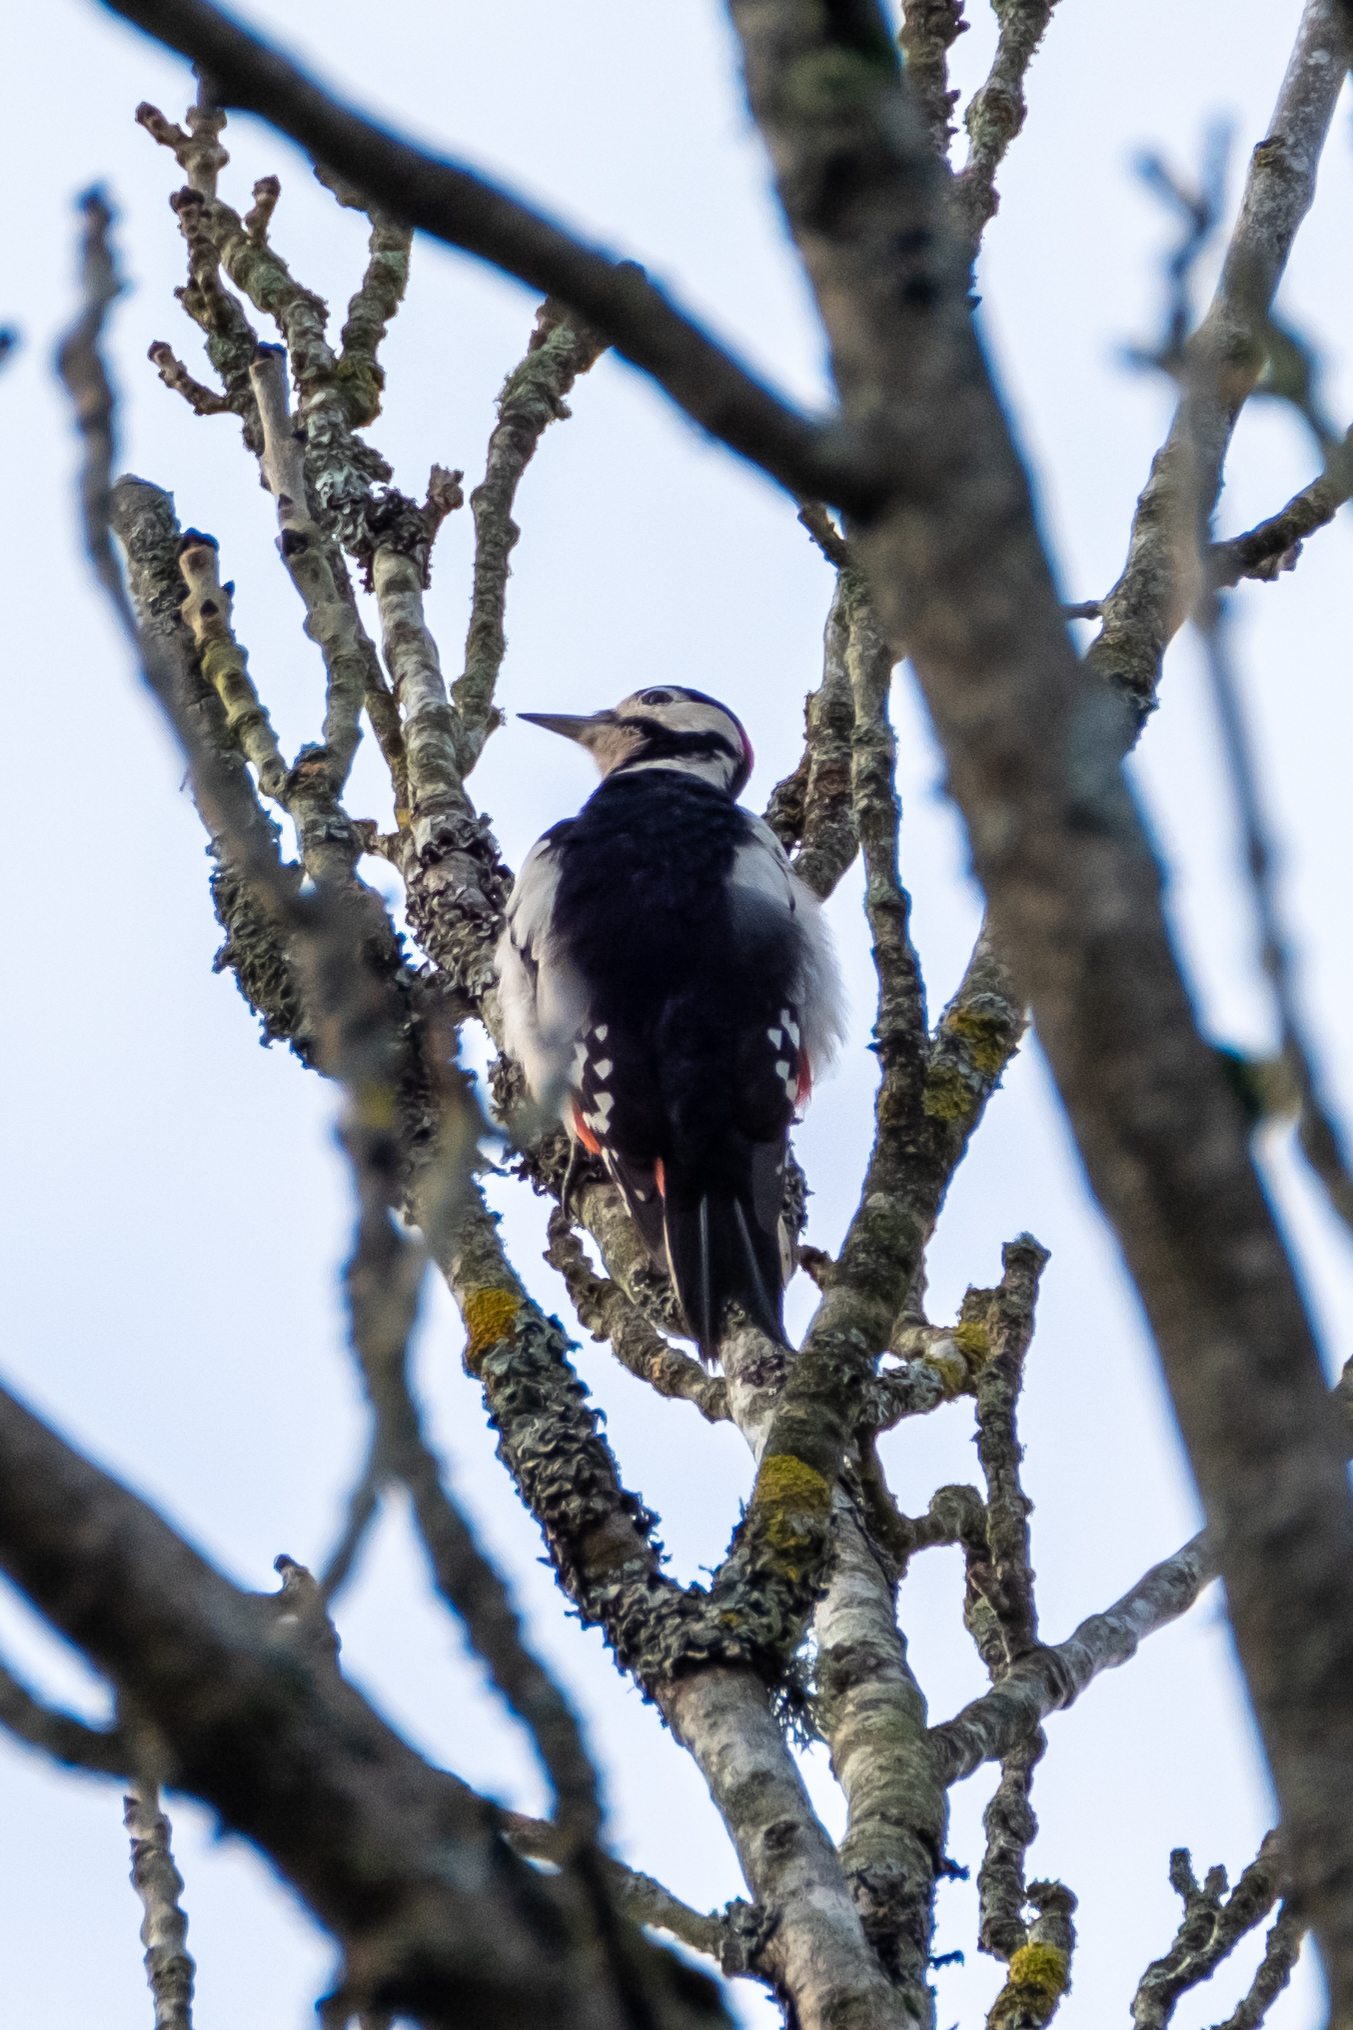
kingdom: Animalia
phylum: Chordata
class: Aves
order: Piciformes
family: Picidae
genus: Dendrocopos
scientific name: Dendrocopos major
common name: Great spotted woodpecker
